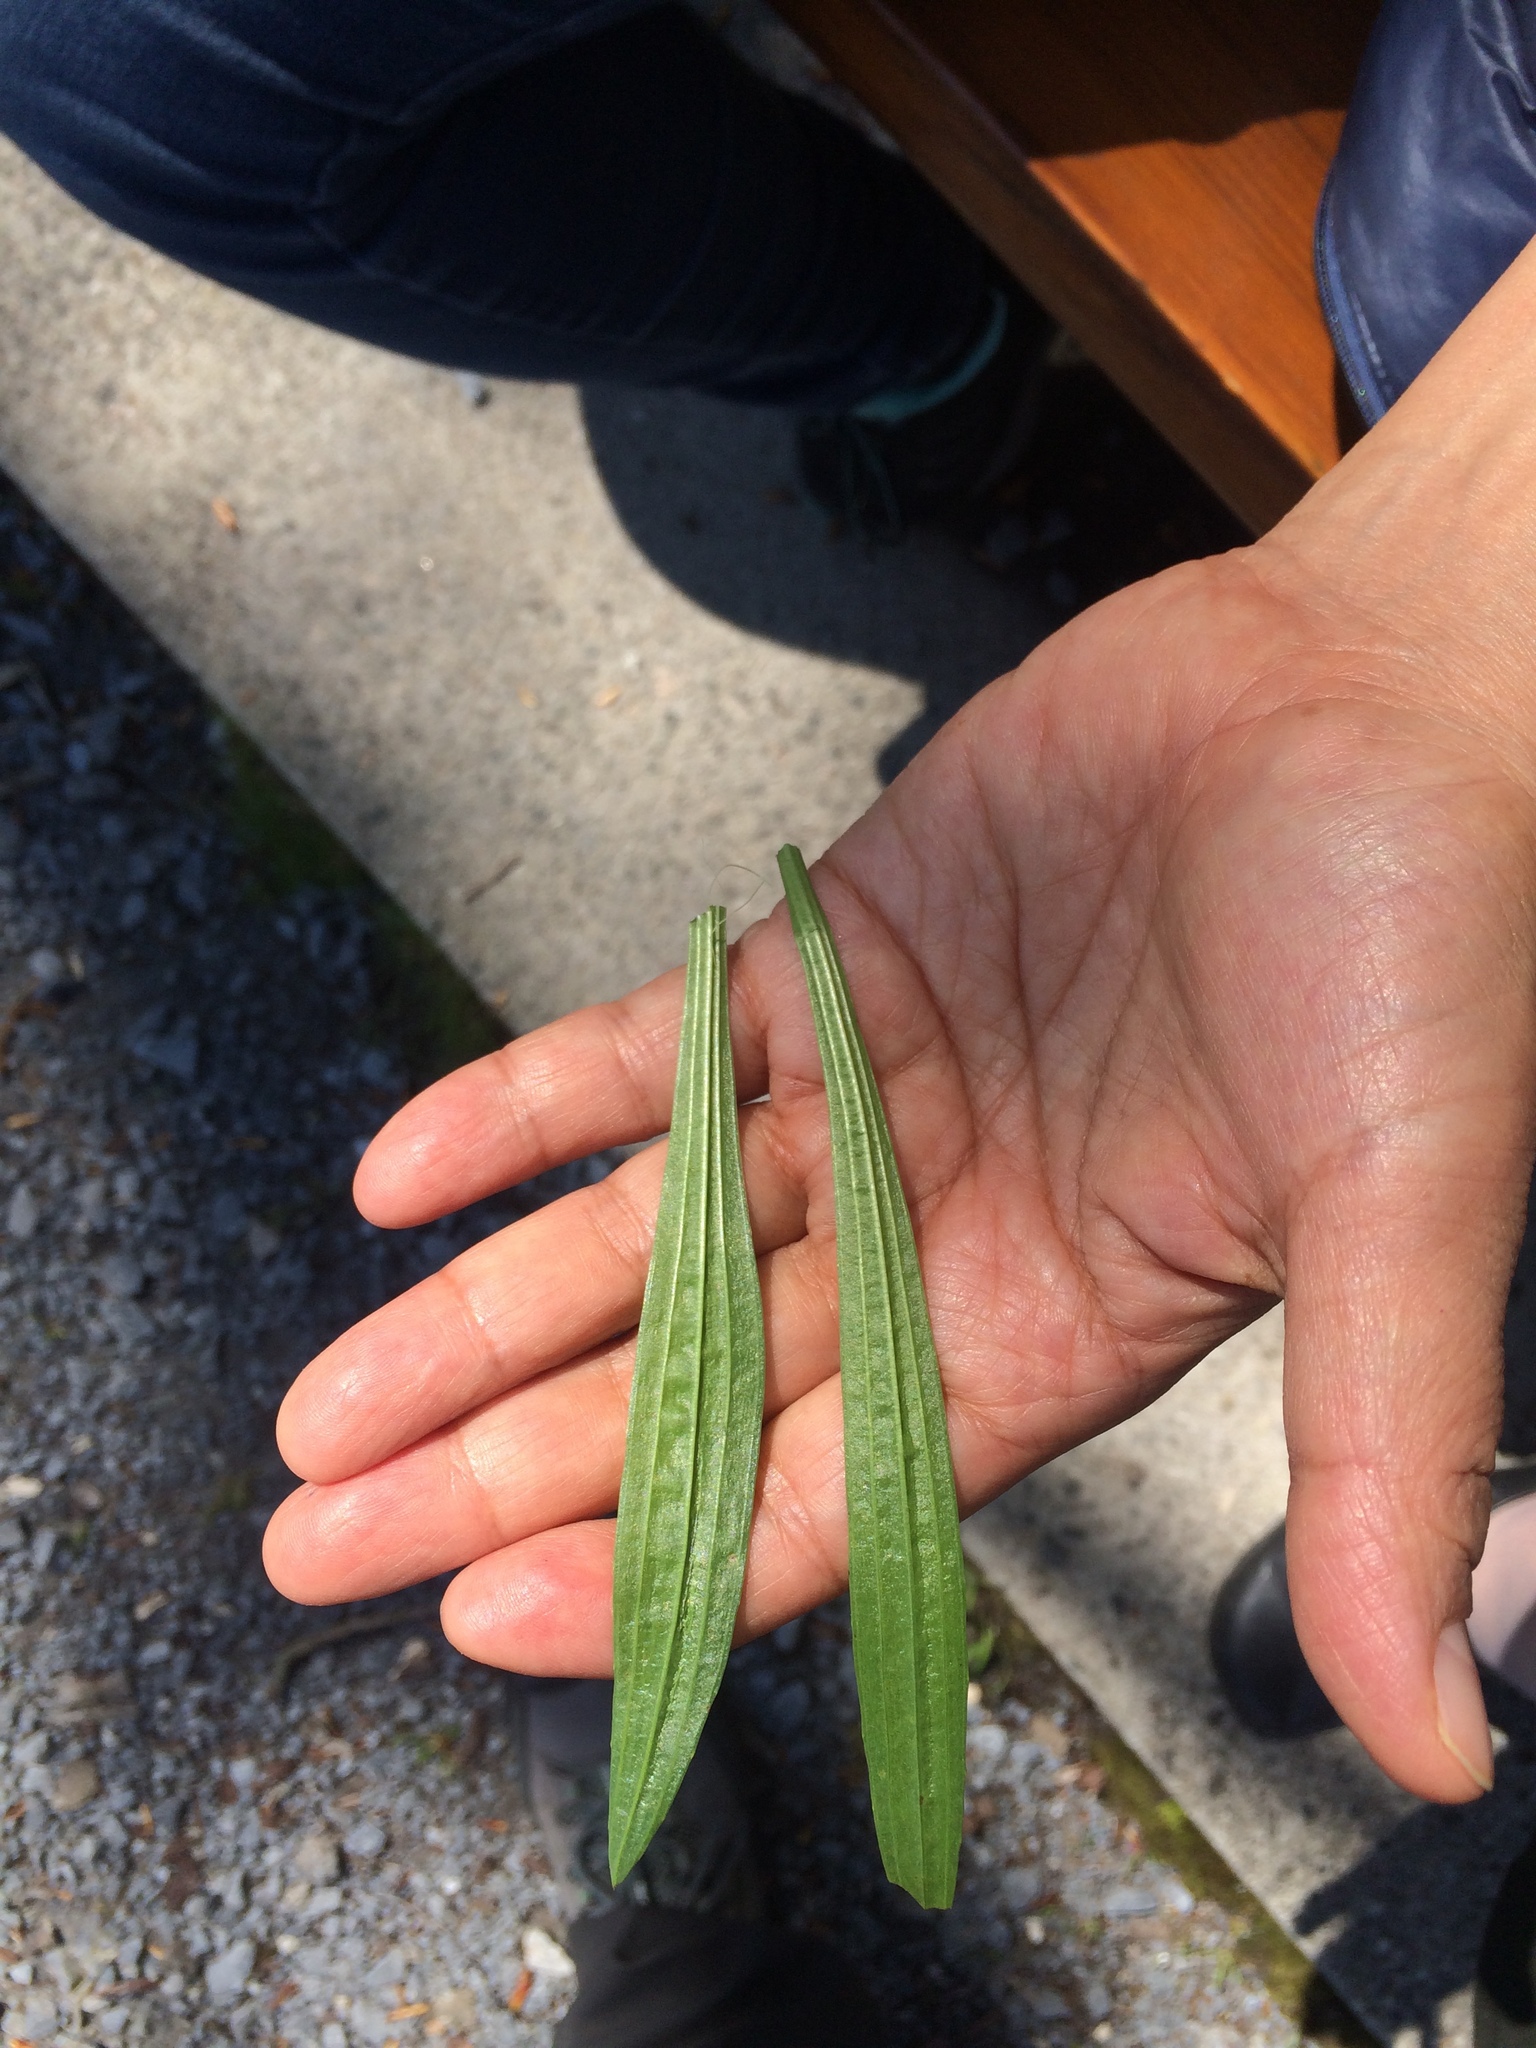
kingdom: Plantae
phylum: Tracheophyta
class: Magnoliopsida
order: Lamiales
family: Plantaginaceae
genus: Plantago
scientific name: Plantago lanceolata
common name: Ribwort plantain
